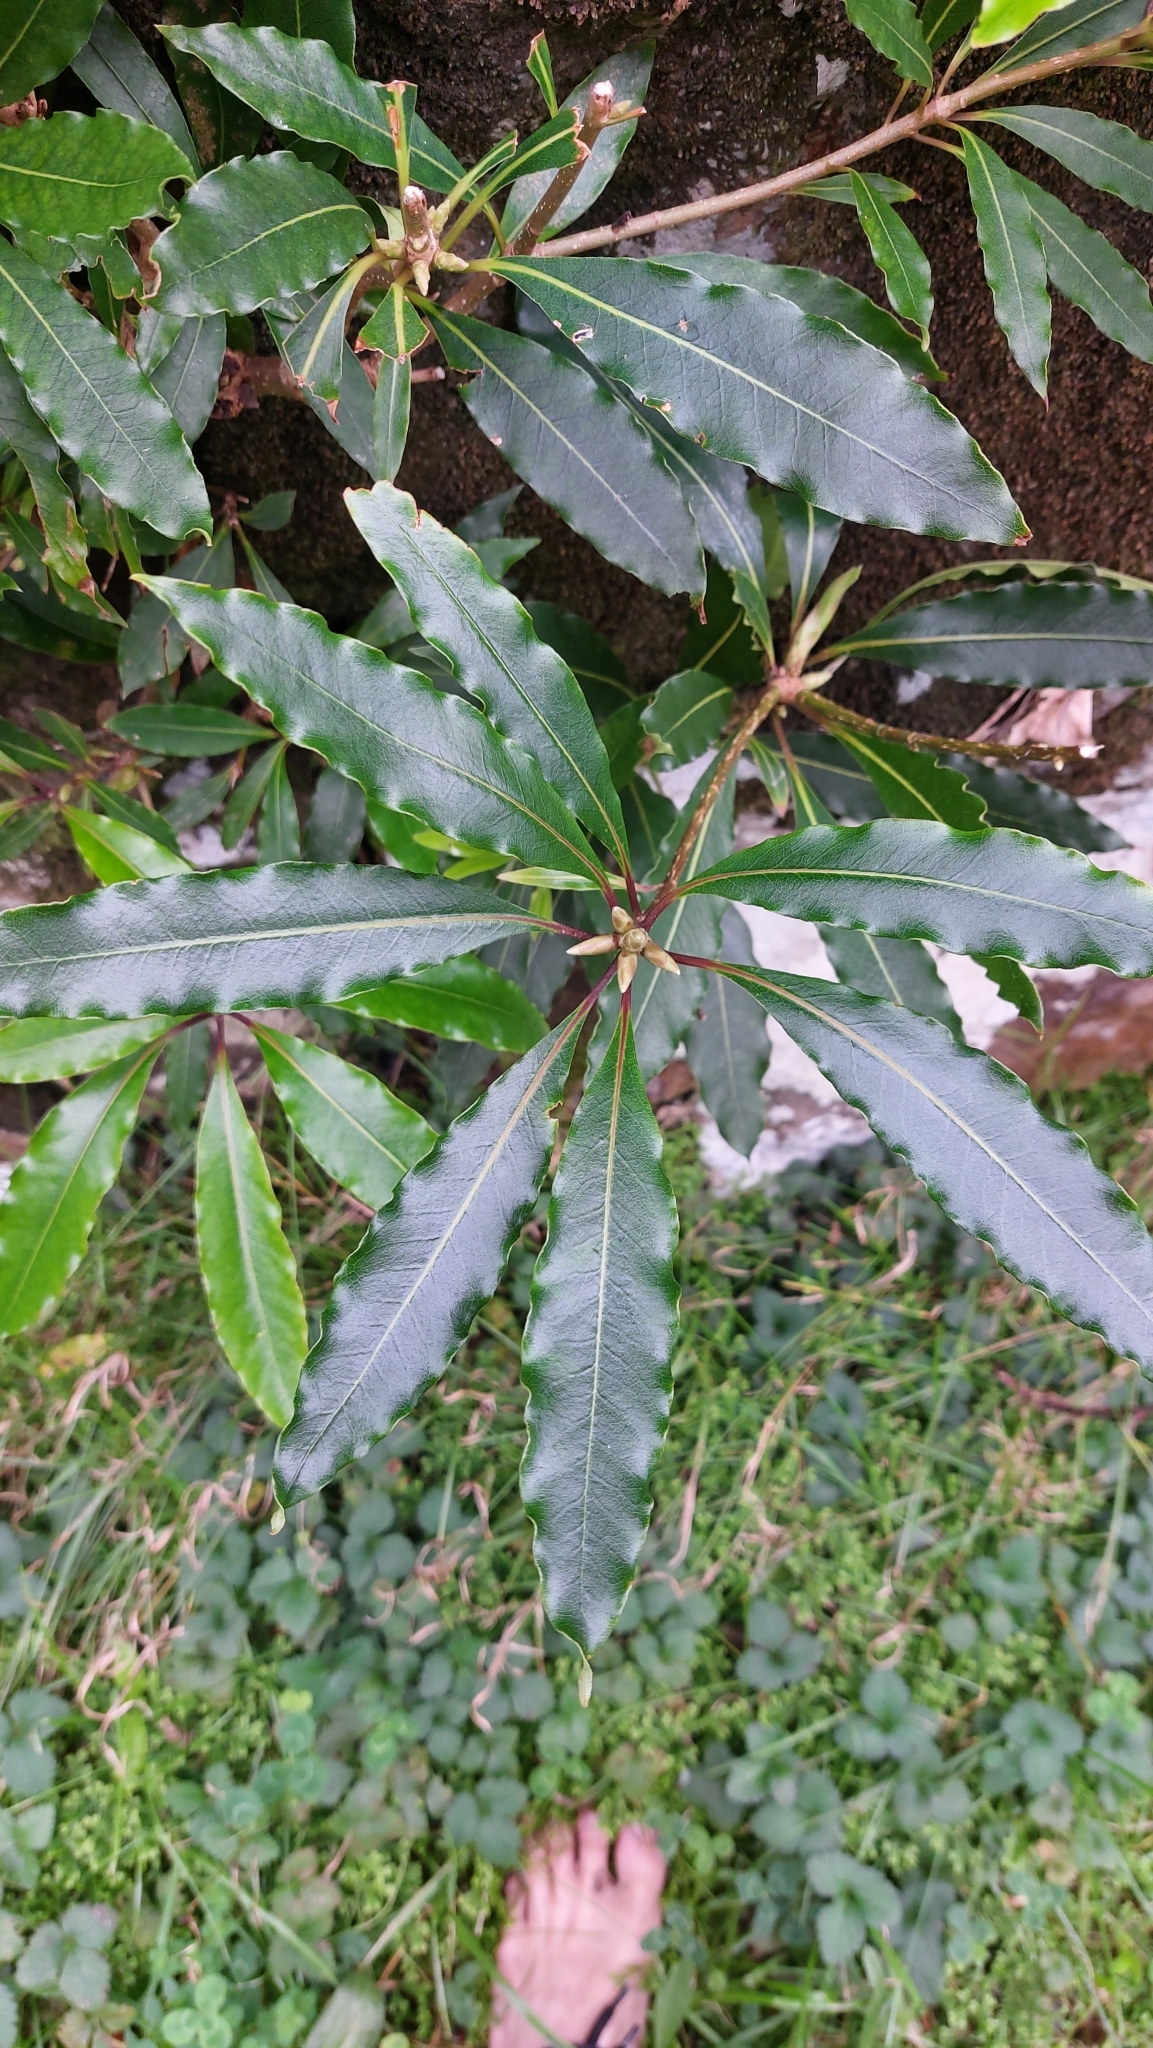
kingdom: Plantae
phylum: Tracheophyta
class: Magnoliopsida
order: Apiales
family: Pittosporaceae
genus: Pittosporum
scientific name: Pittosporum undulatum
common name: Australian cheesewood
